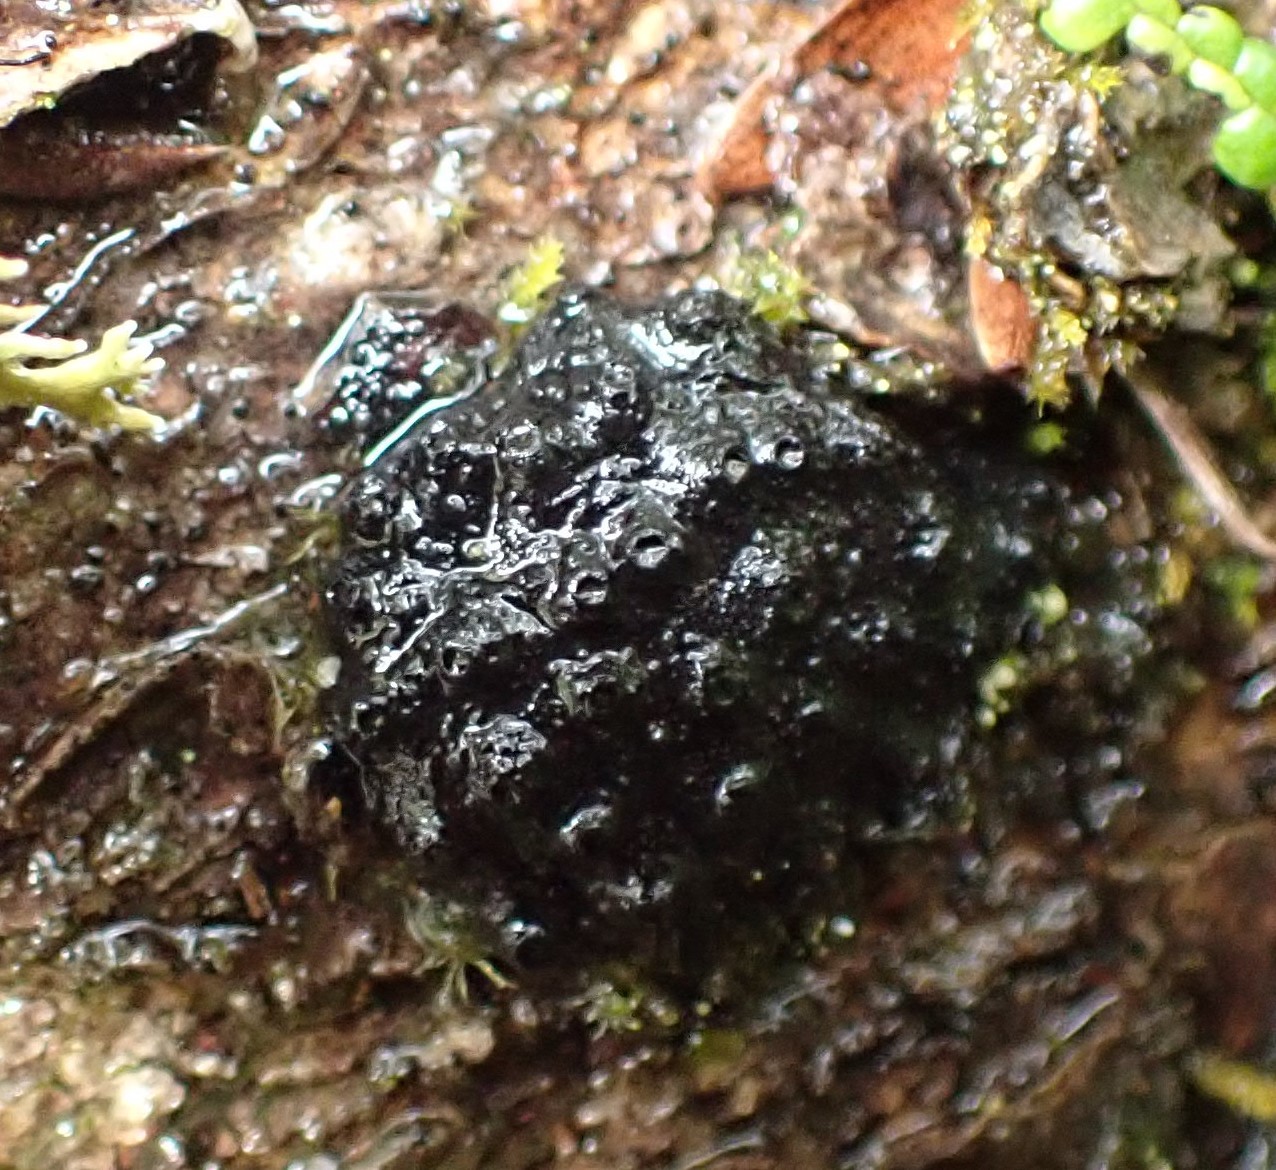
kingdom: Fungi
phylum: Ascomycota
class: Sordariomycetes
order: Xylariales
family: Hypoxylaceae
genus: Annulohypoxylon
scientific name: Annulohypoxylon hians
